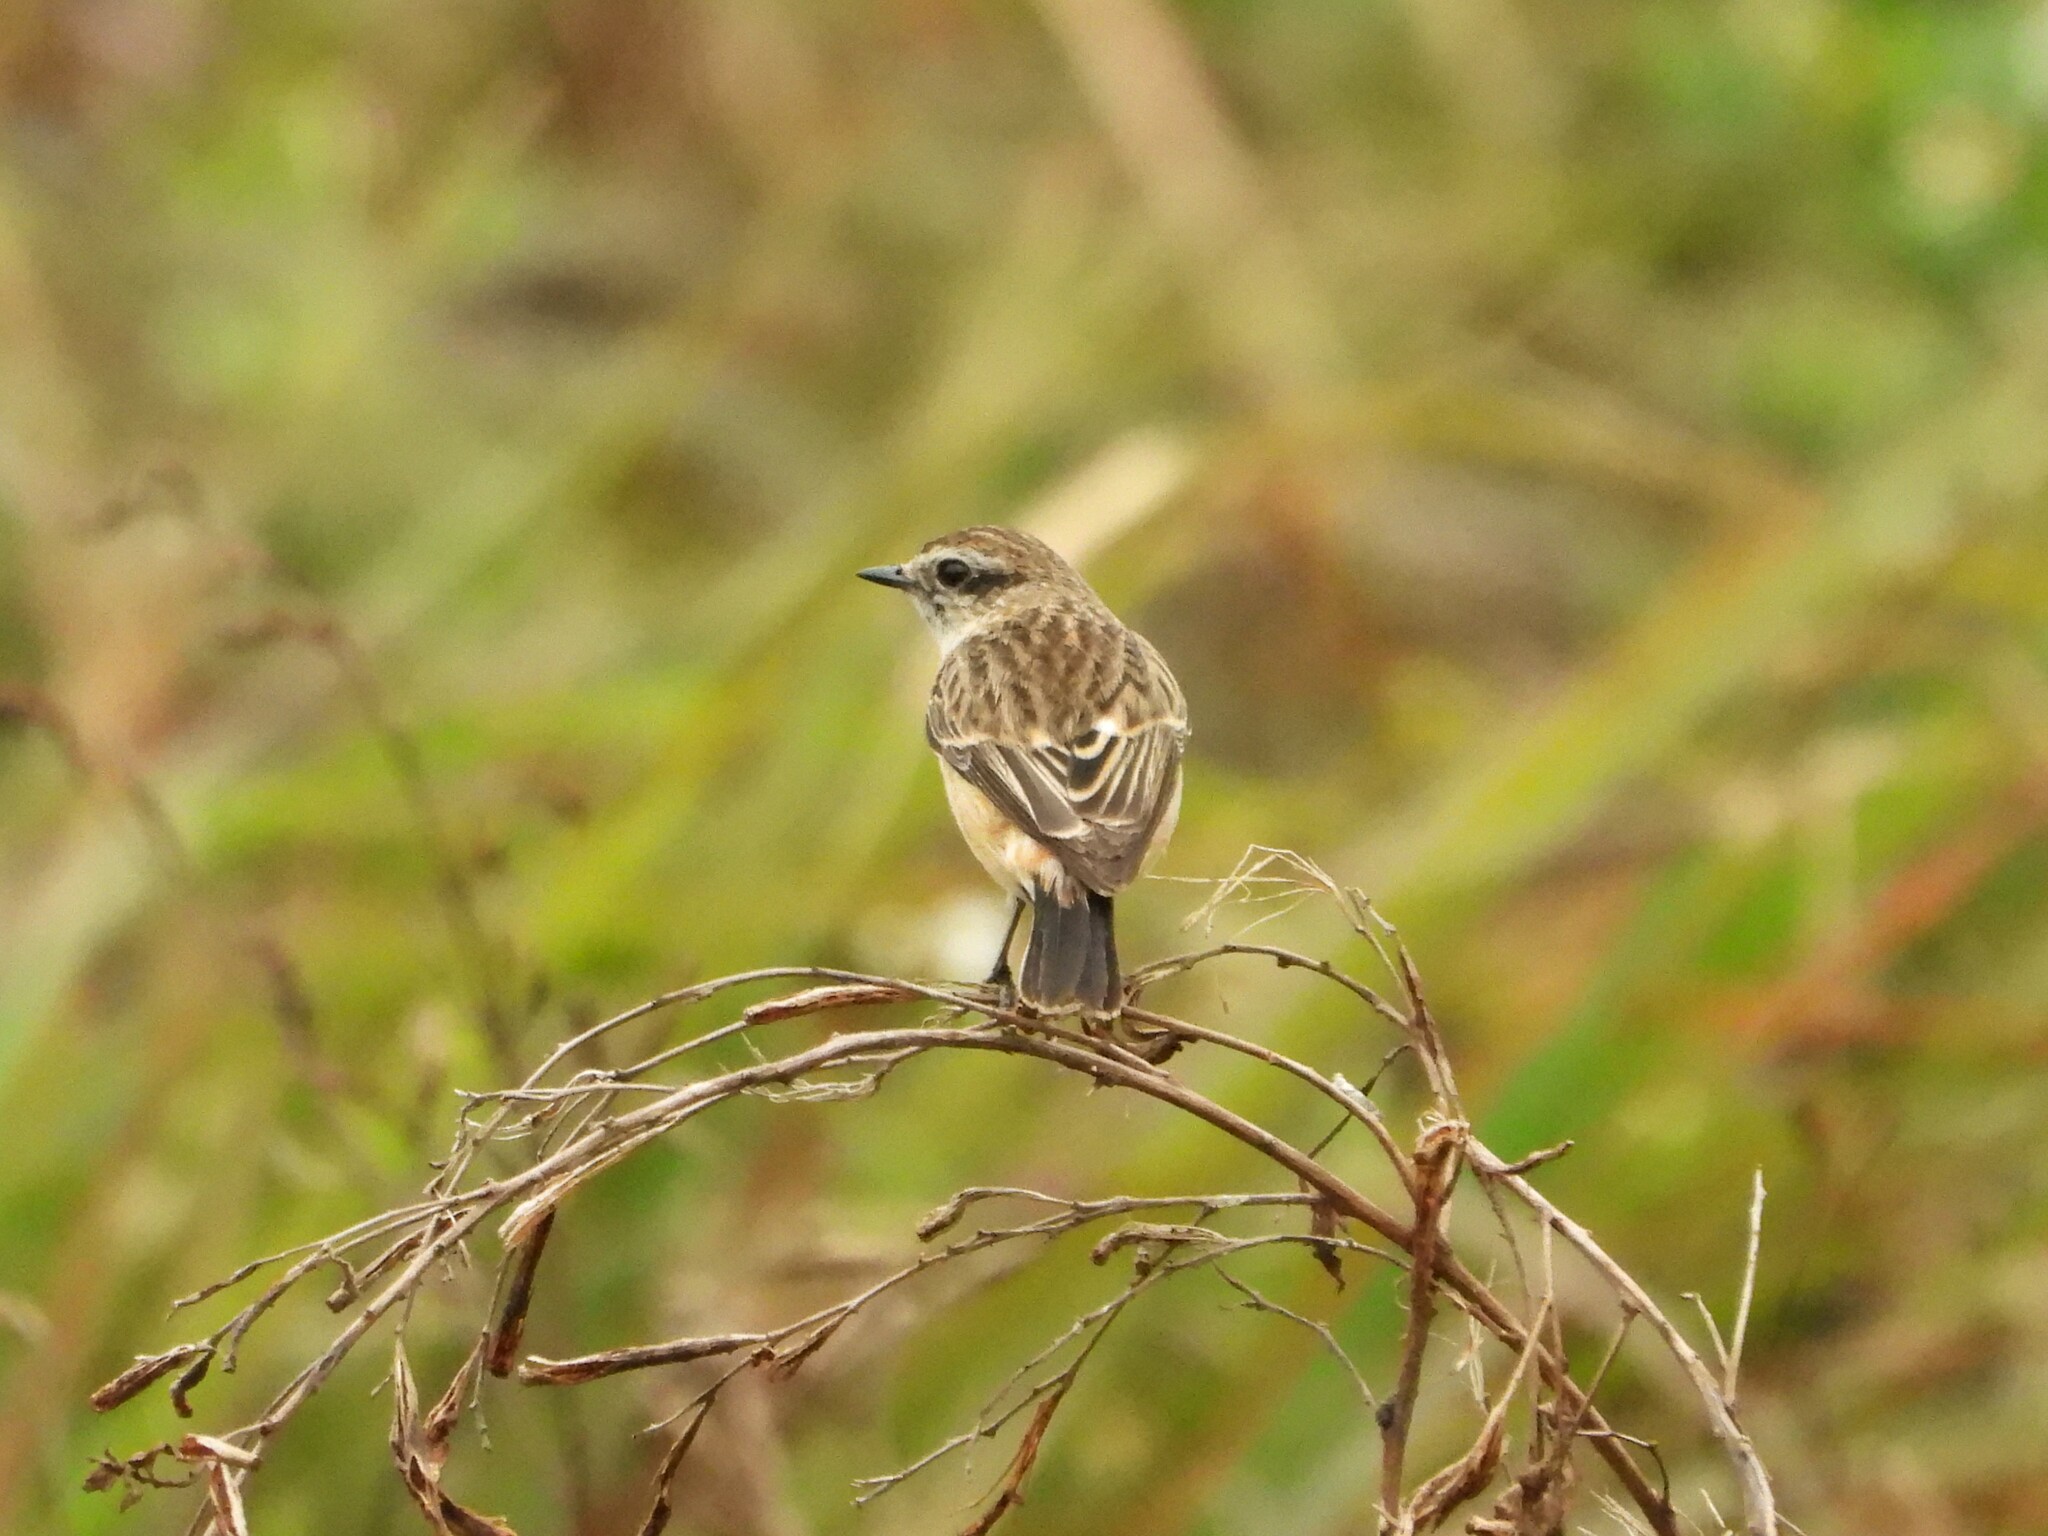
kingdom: Animalia
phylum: Chordata
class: Aves
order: Passeriformes
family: Muscicapidae
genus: Saxicola
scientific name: Saxicola stejnegeri
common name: Stejneger's stonechat
